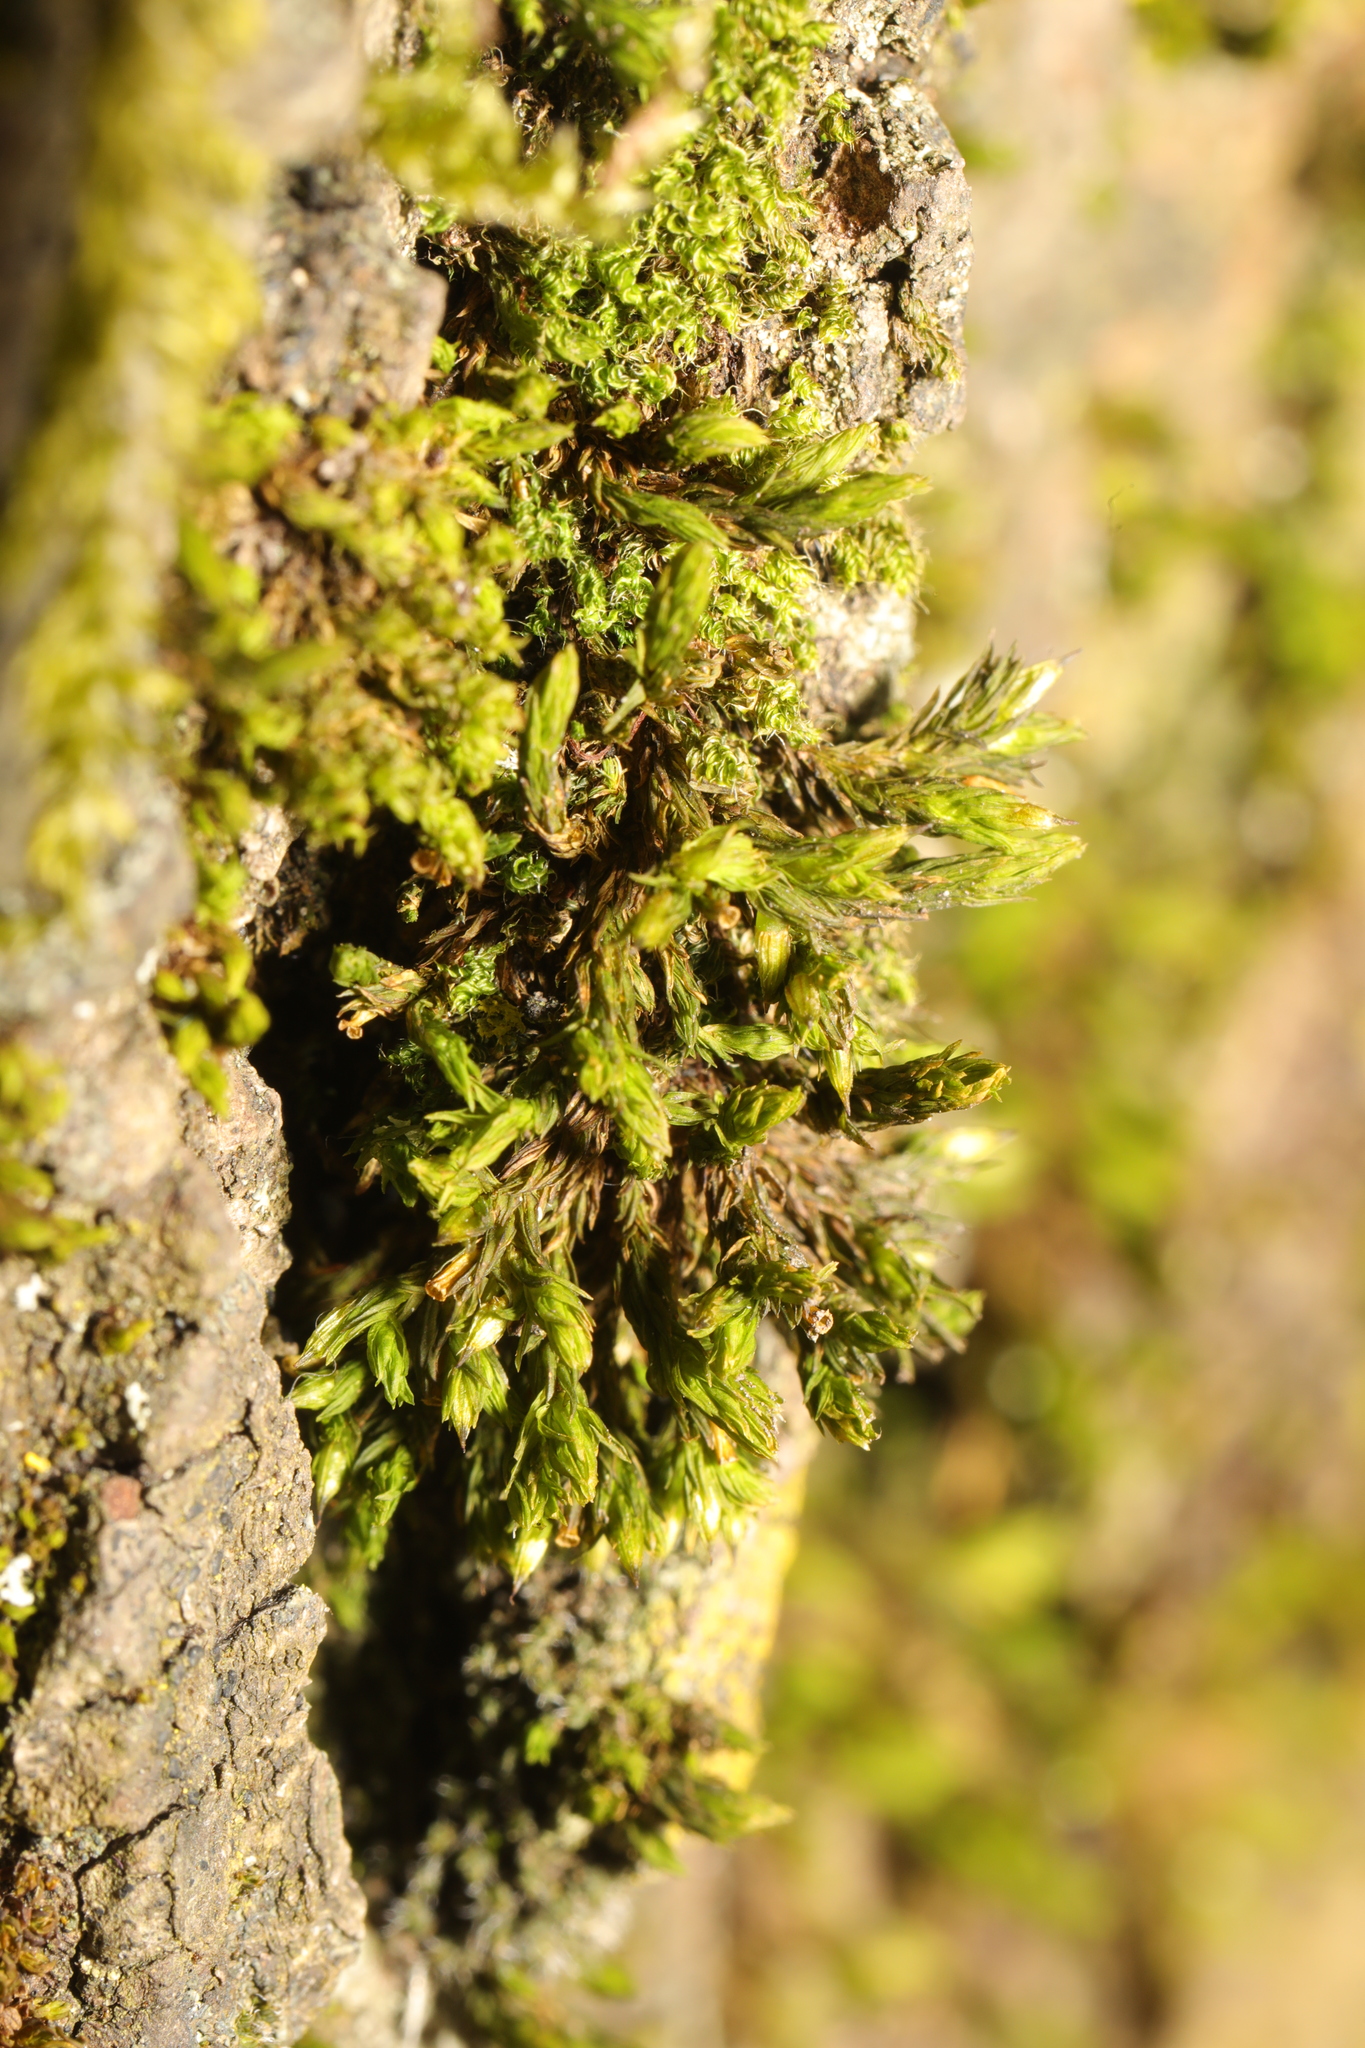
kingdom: Plantae
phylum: Bryophyta
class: Bryopsida
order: Orthotrichales
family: Orthotrichaceae
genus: Lewinskya
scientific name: Lewinskya affinis
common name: Wood bristle-moss
